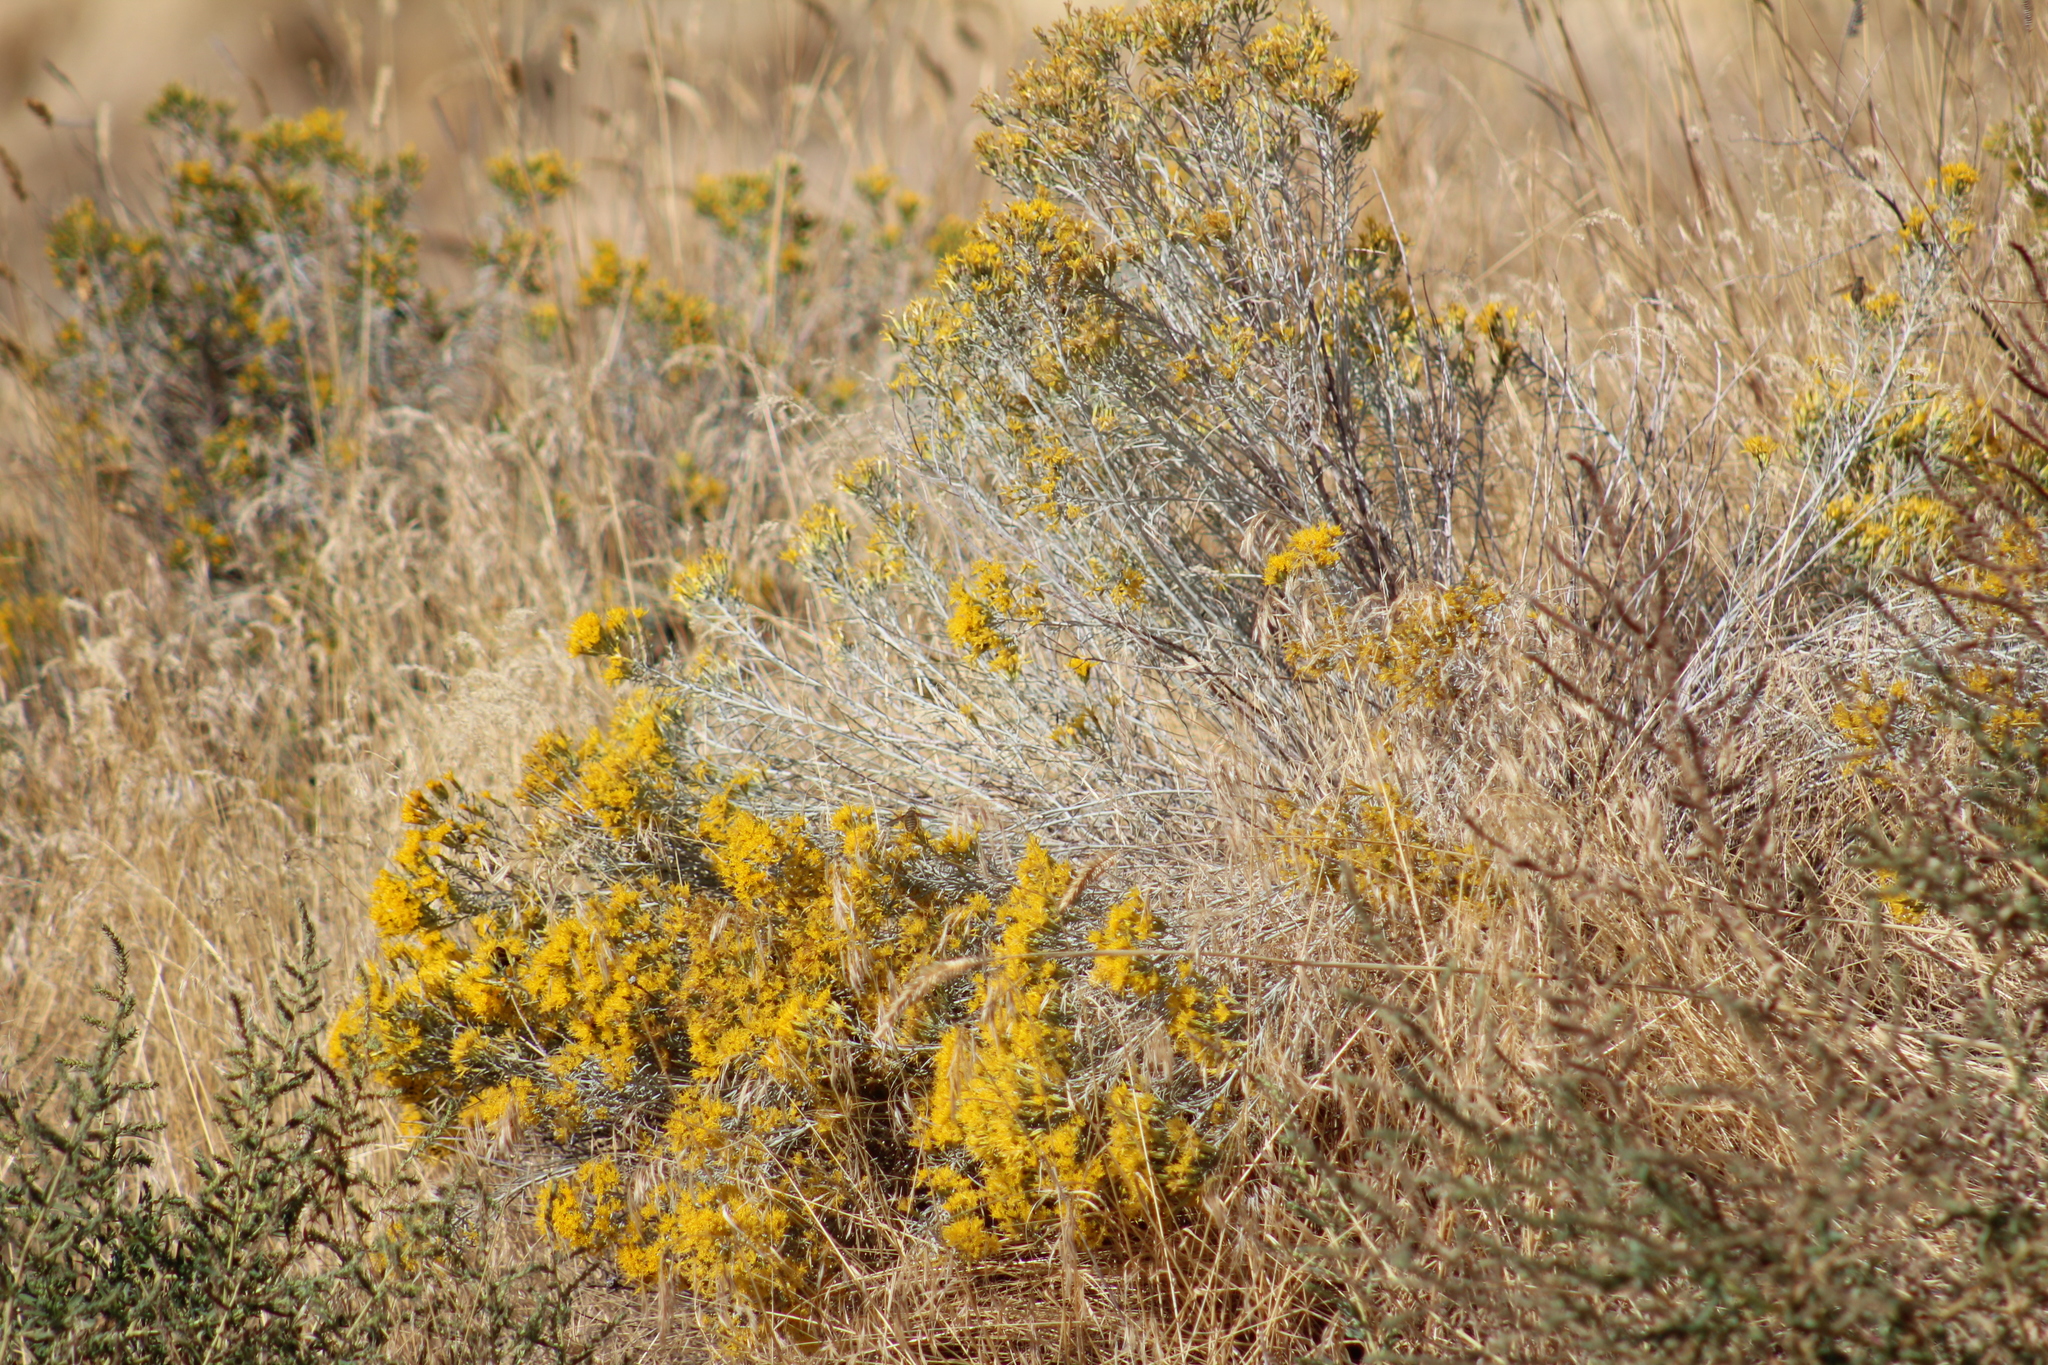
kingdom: Plantae
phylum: Tracheophyta
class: Magnoliopsida
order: Asterales
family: Asteraceae
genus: Ericameria
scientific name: Ericameria nauseosa
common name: Rubber rabbitbrush
